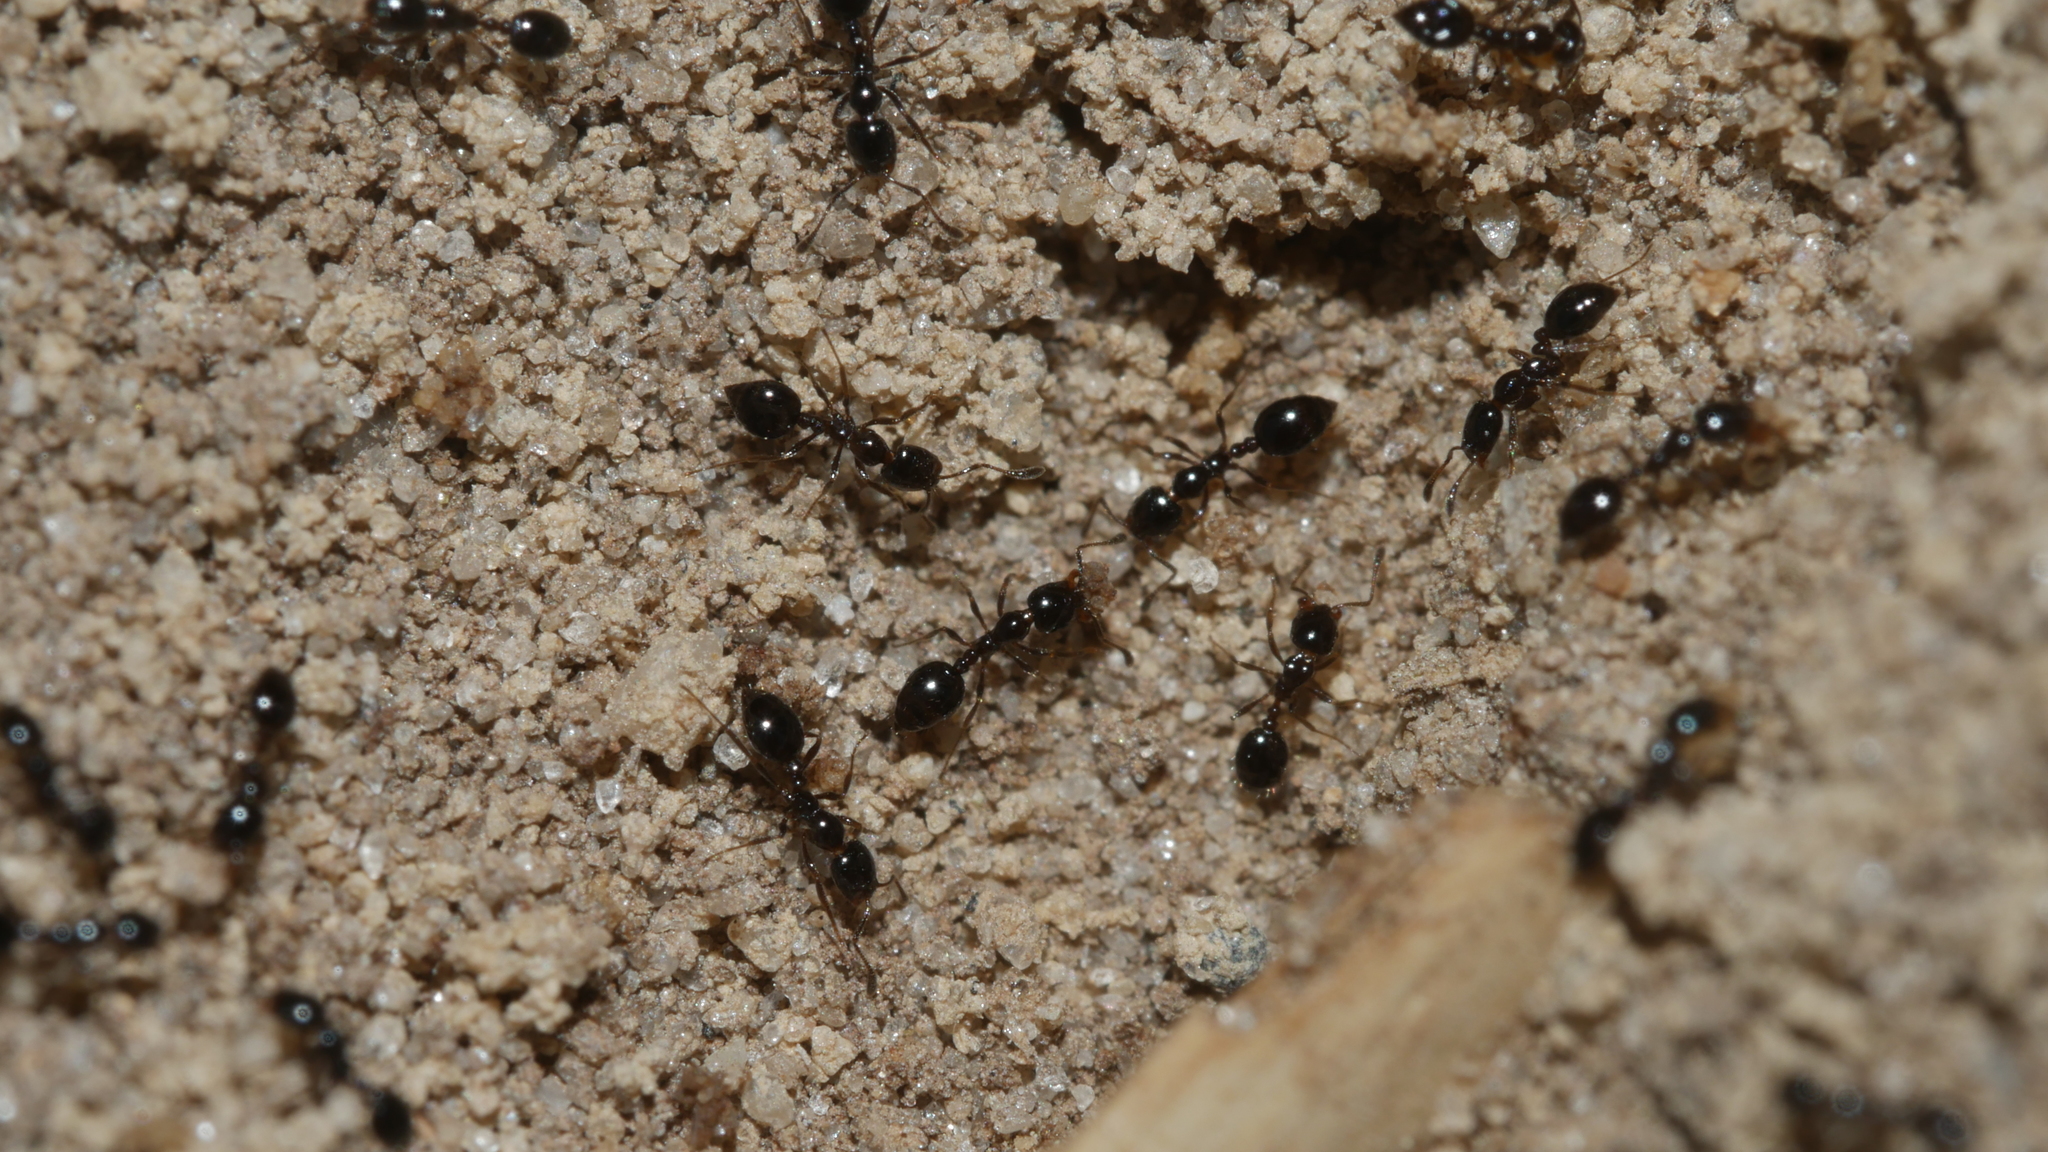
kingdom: Animalia
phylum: Arthropoda
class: Insecta
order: Hymenoptera
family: Formicidae
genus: Monomorium
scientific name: Monomorium minimum
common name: Little black ant
